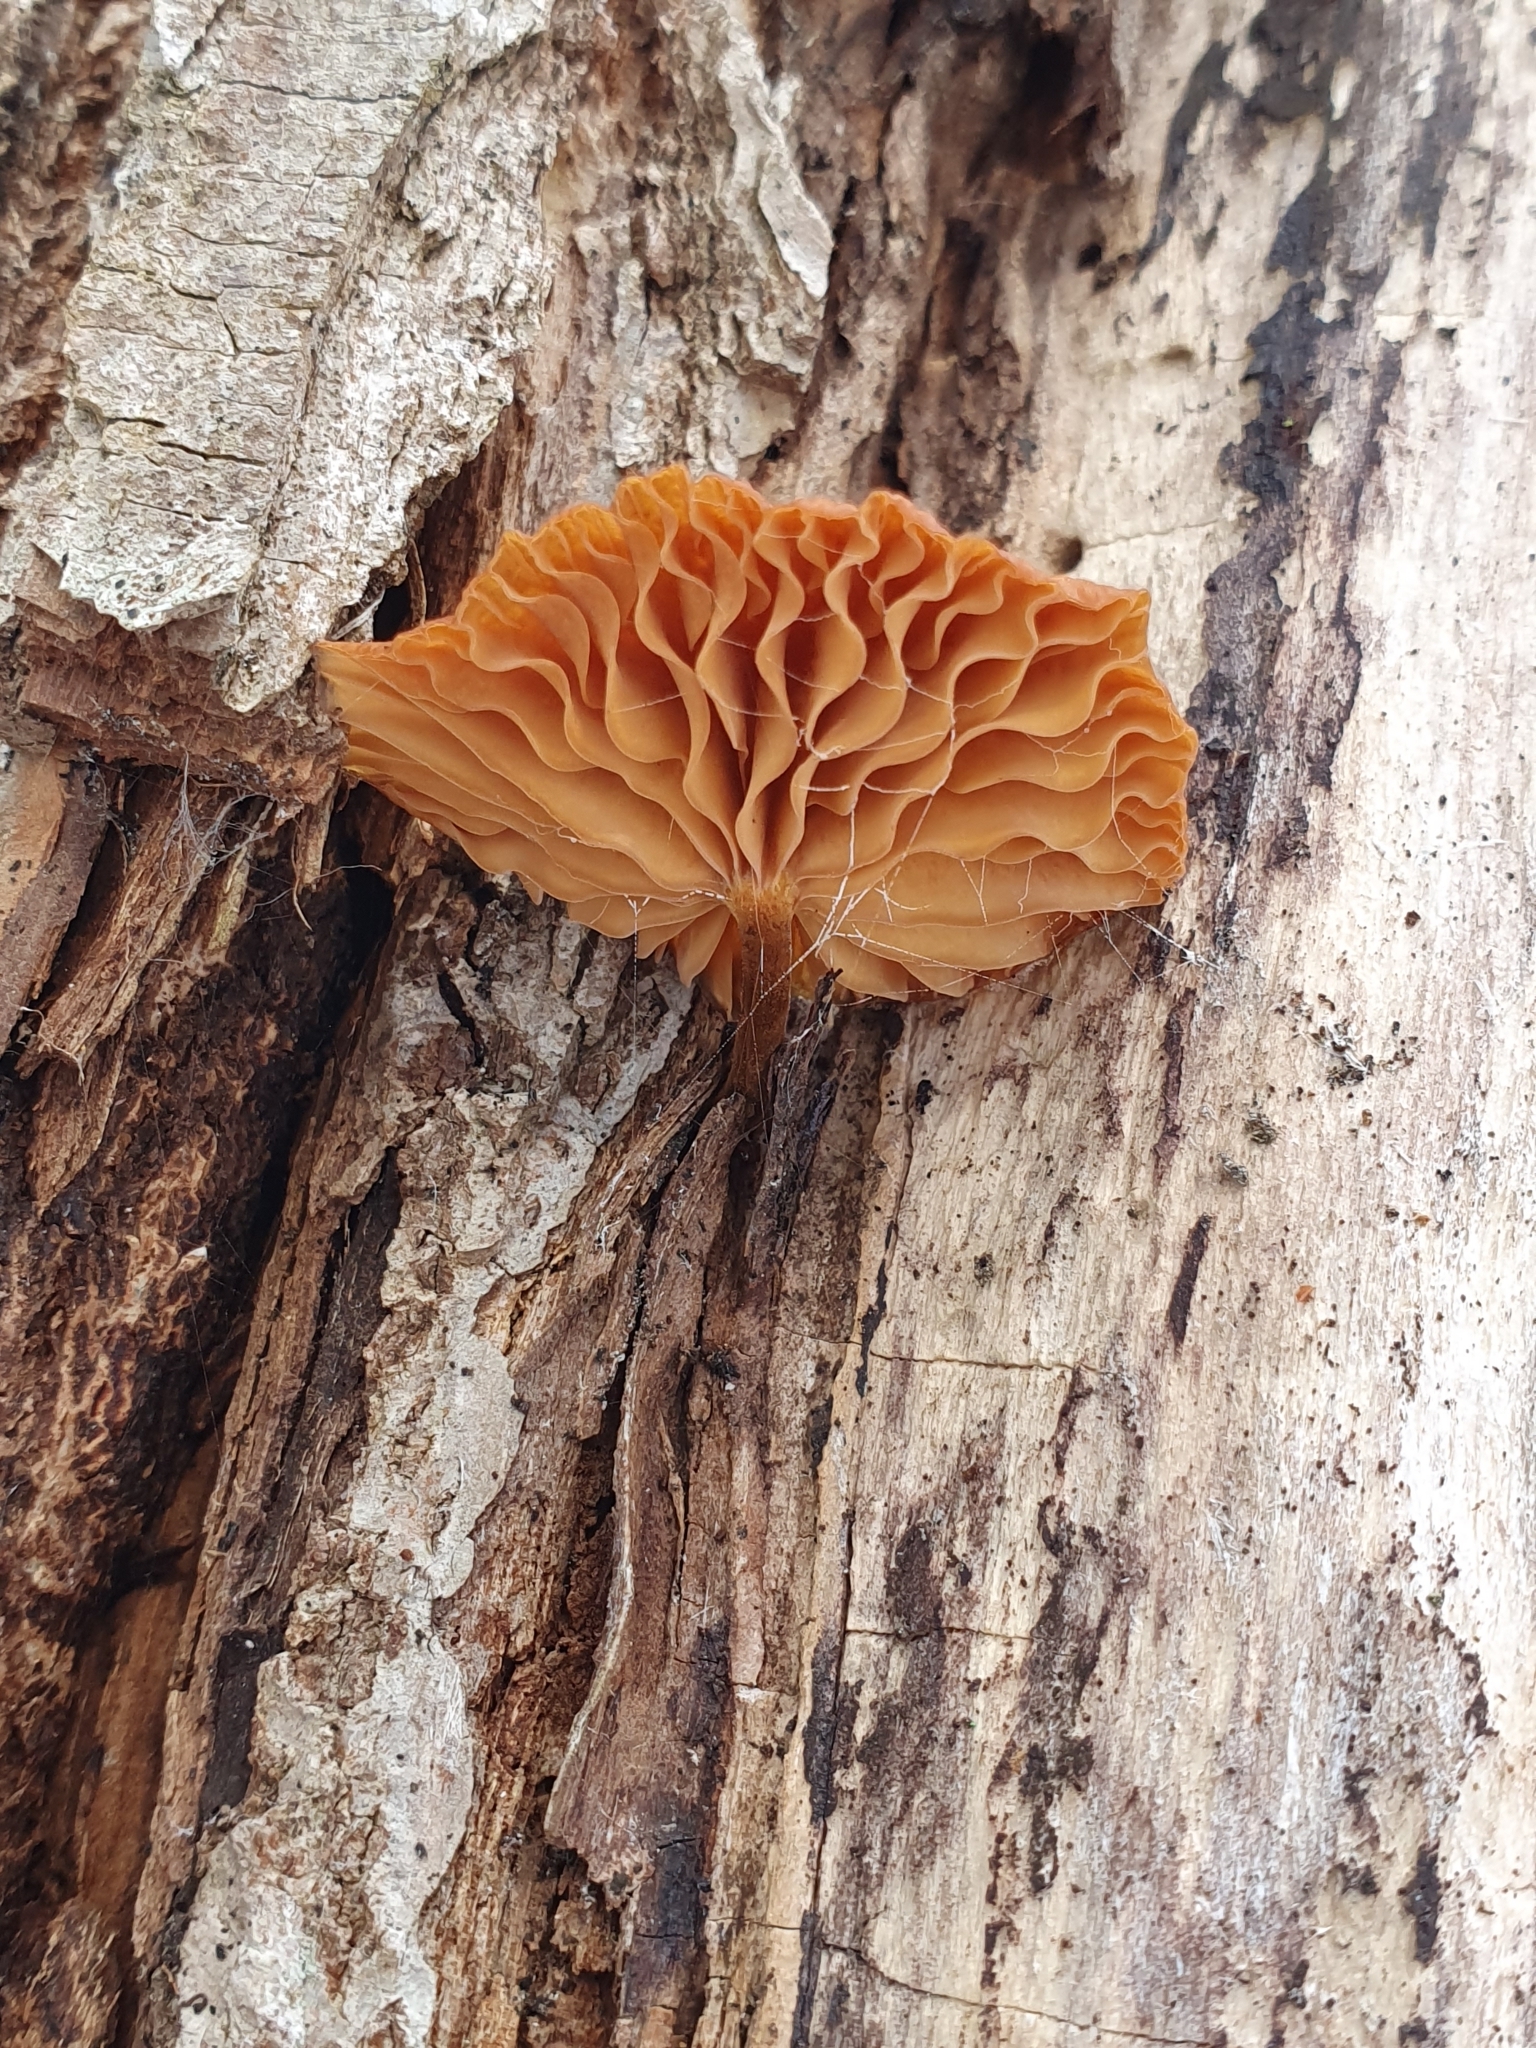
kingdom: Fungi
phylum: Basidiomycota
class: Agaricomycetes
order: Agaricales
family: Physalacriaceae
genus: Flammulina
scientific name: Flammulina
